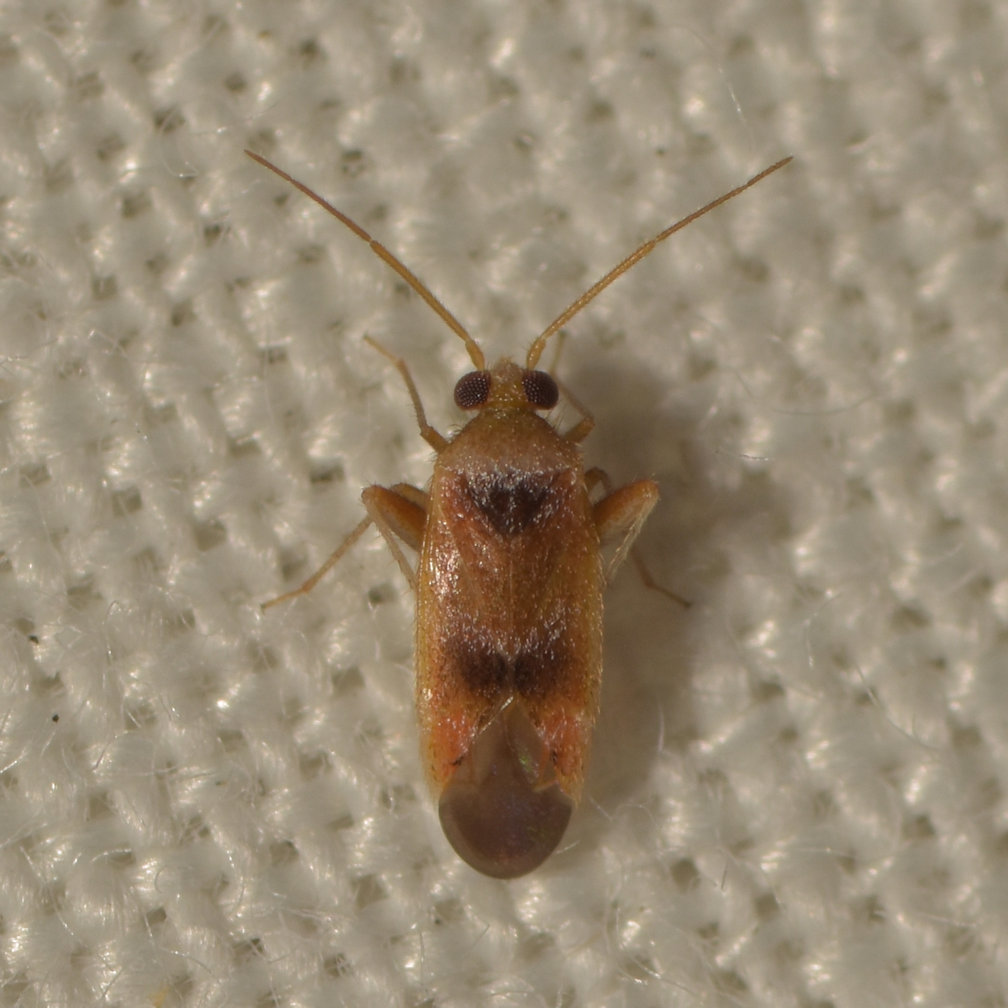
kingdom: Animalia
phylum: Arthropoda
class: Insecta
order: Hemiptera
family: Miridae
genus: Parthenicus
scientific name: Parthenicus juniperi
